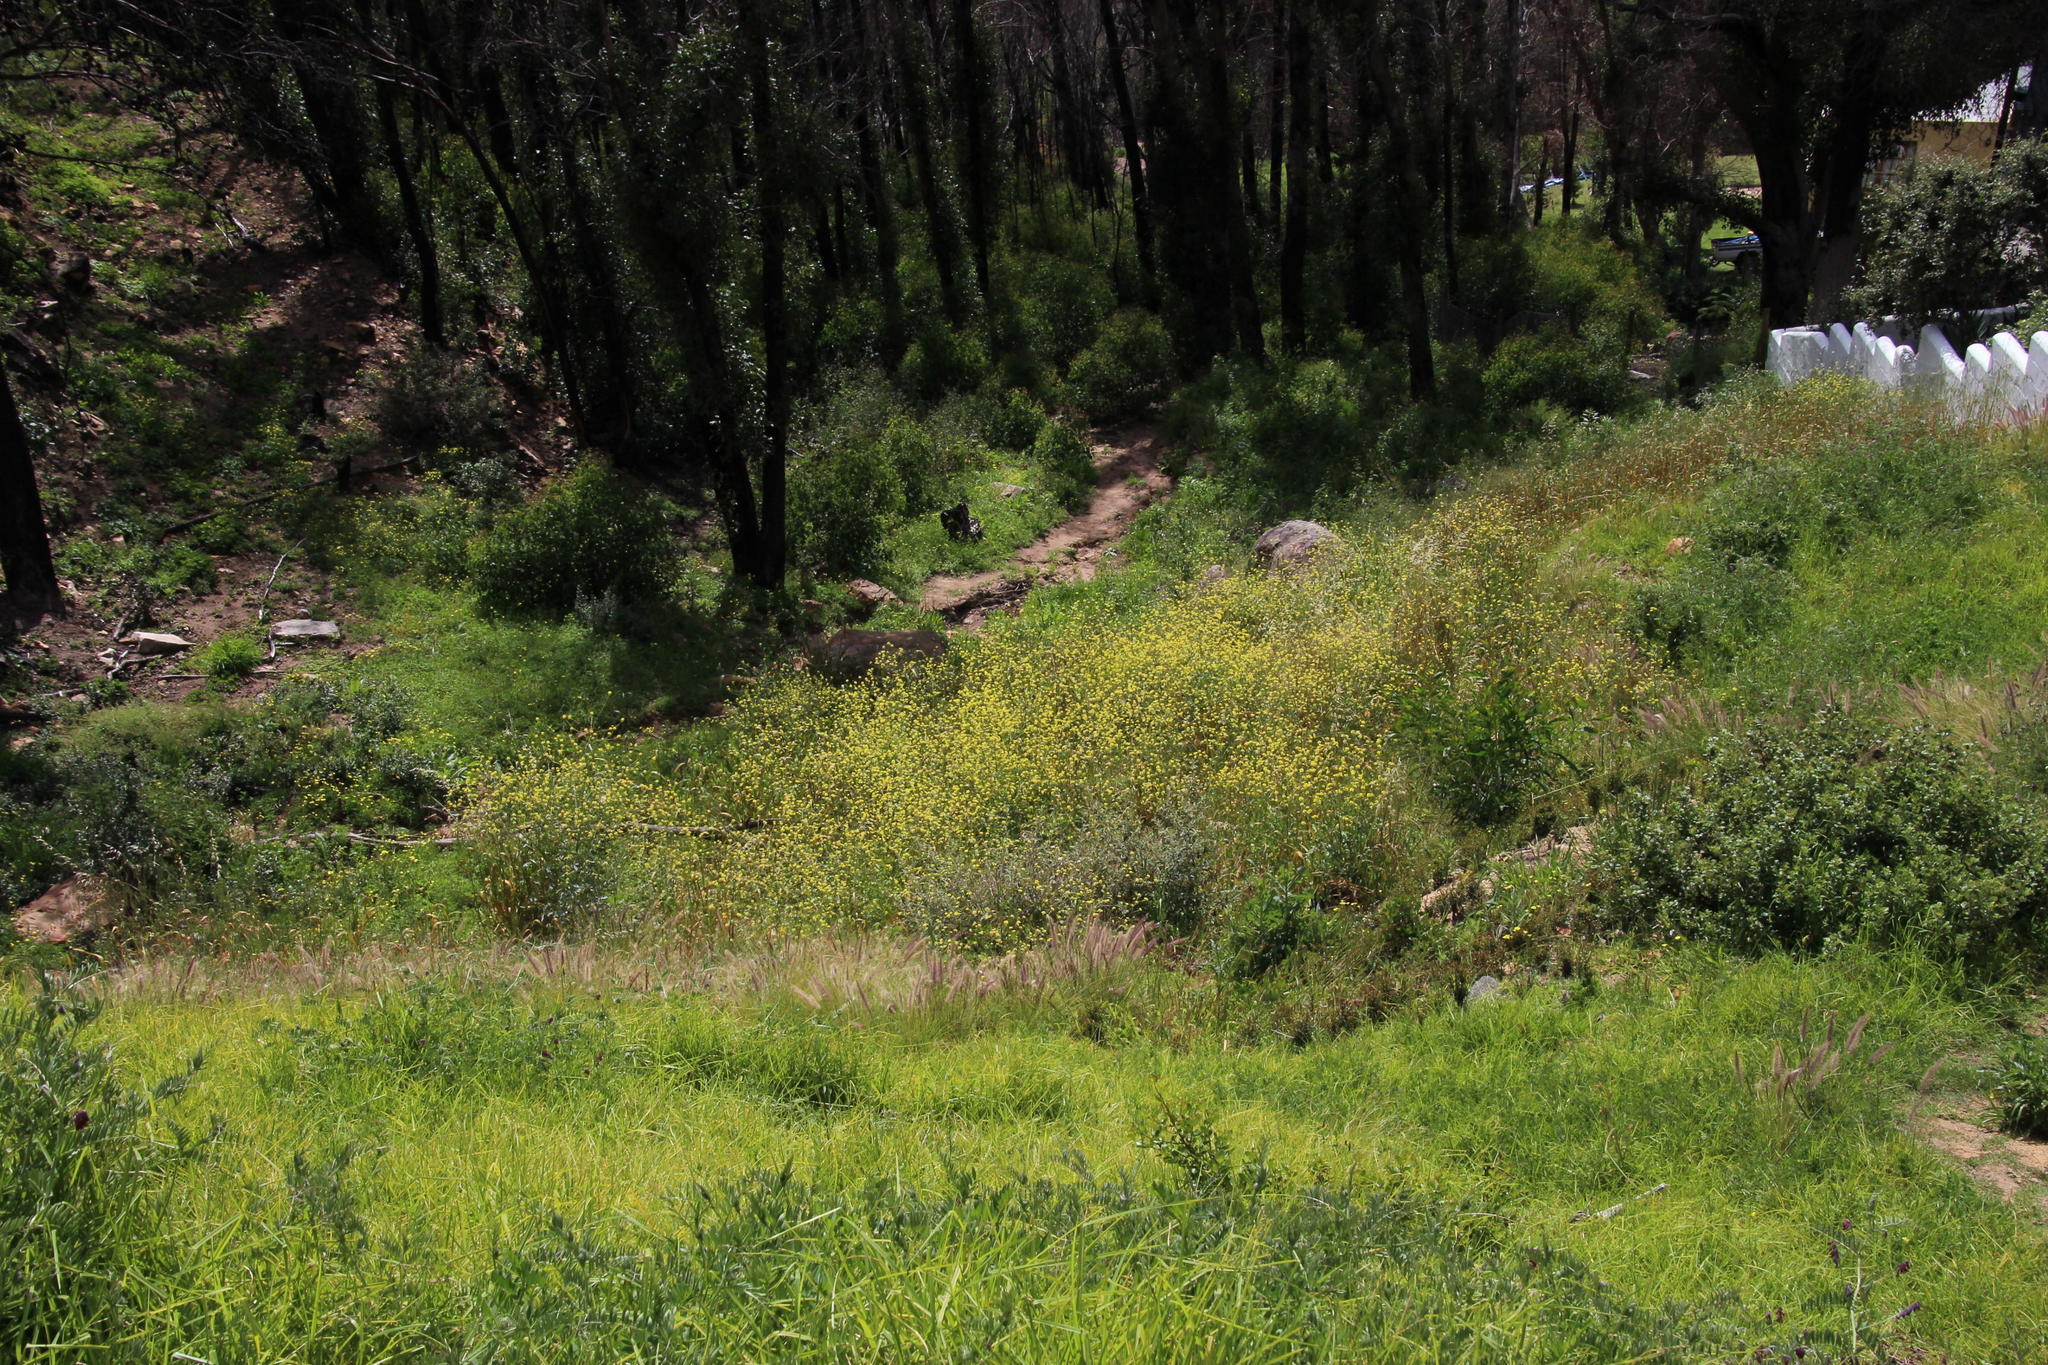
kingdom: Plantae
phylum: Tracheophyta
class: Magnoliopsida
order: Brassicales
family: Brassicaceae
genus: Rapistrum
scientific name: Rapistrum rugosum
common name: Annual bastardcabbage
